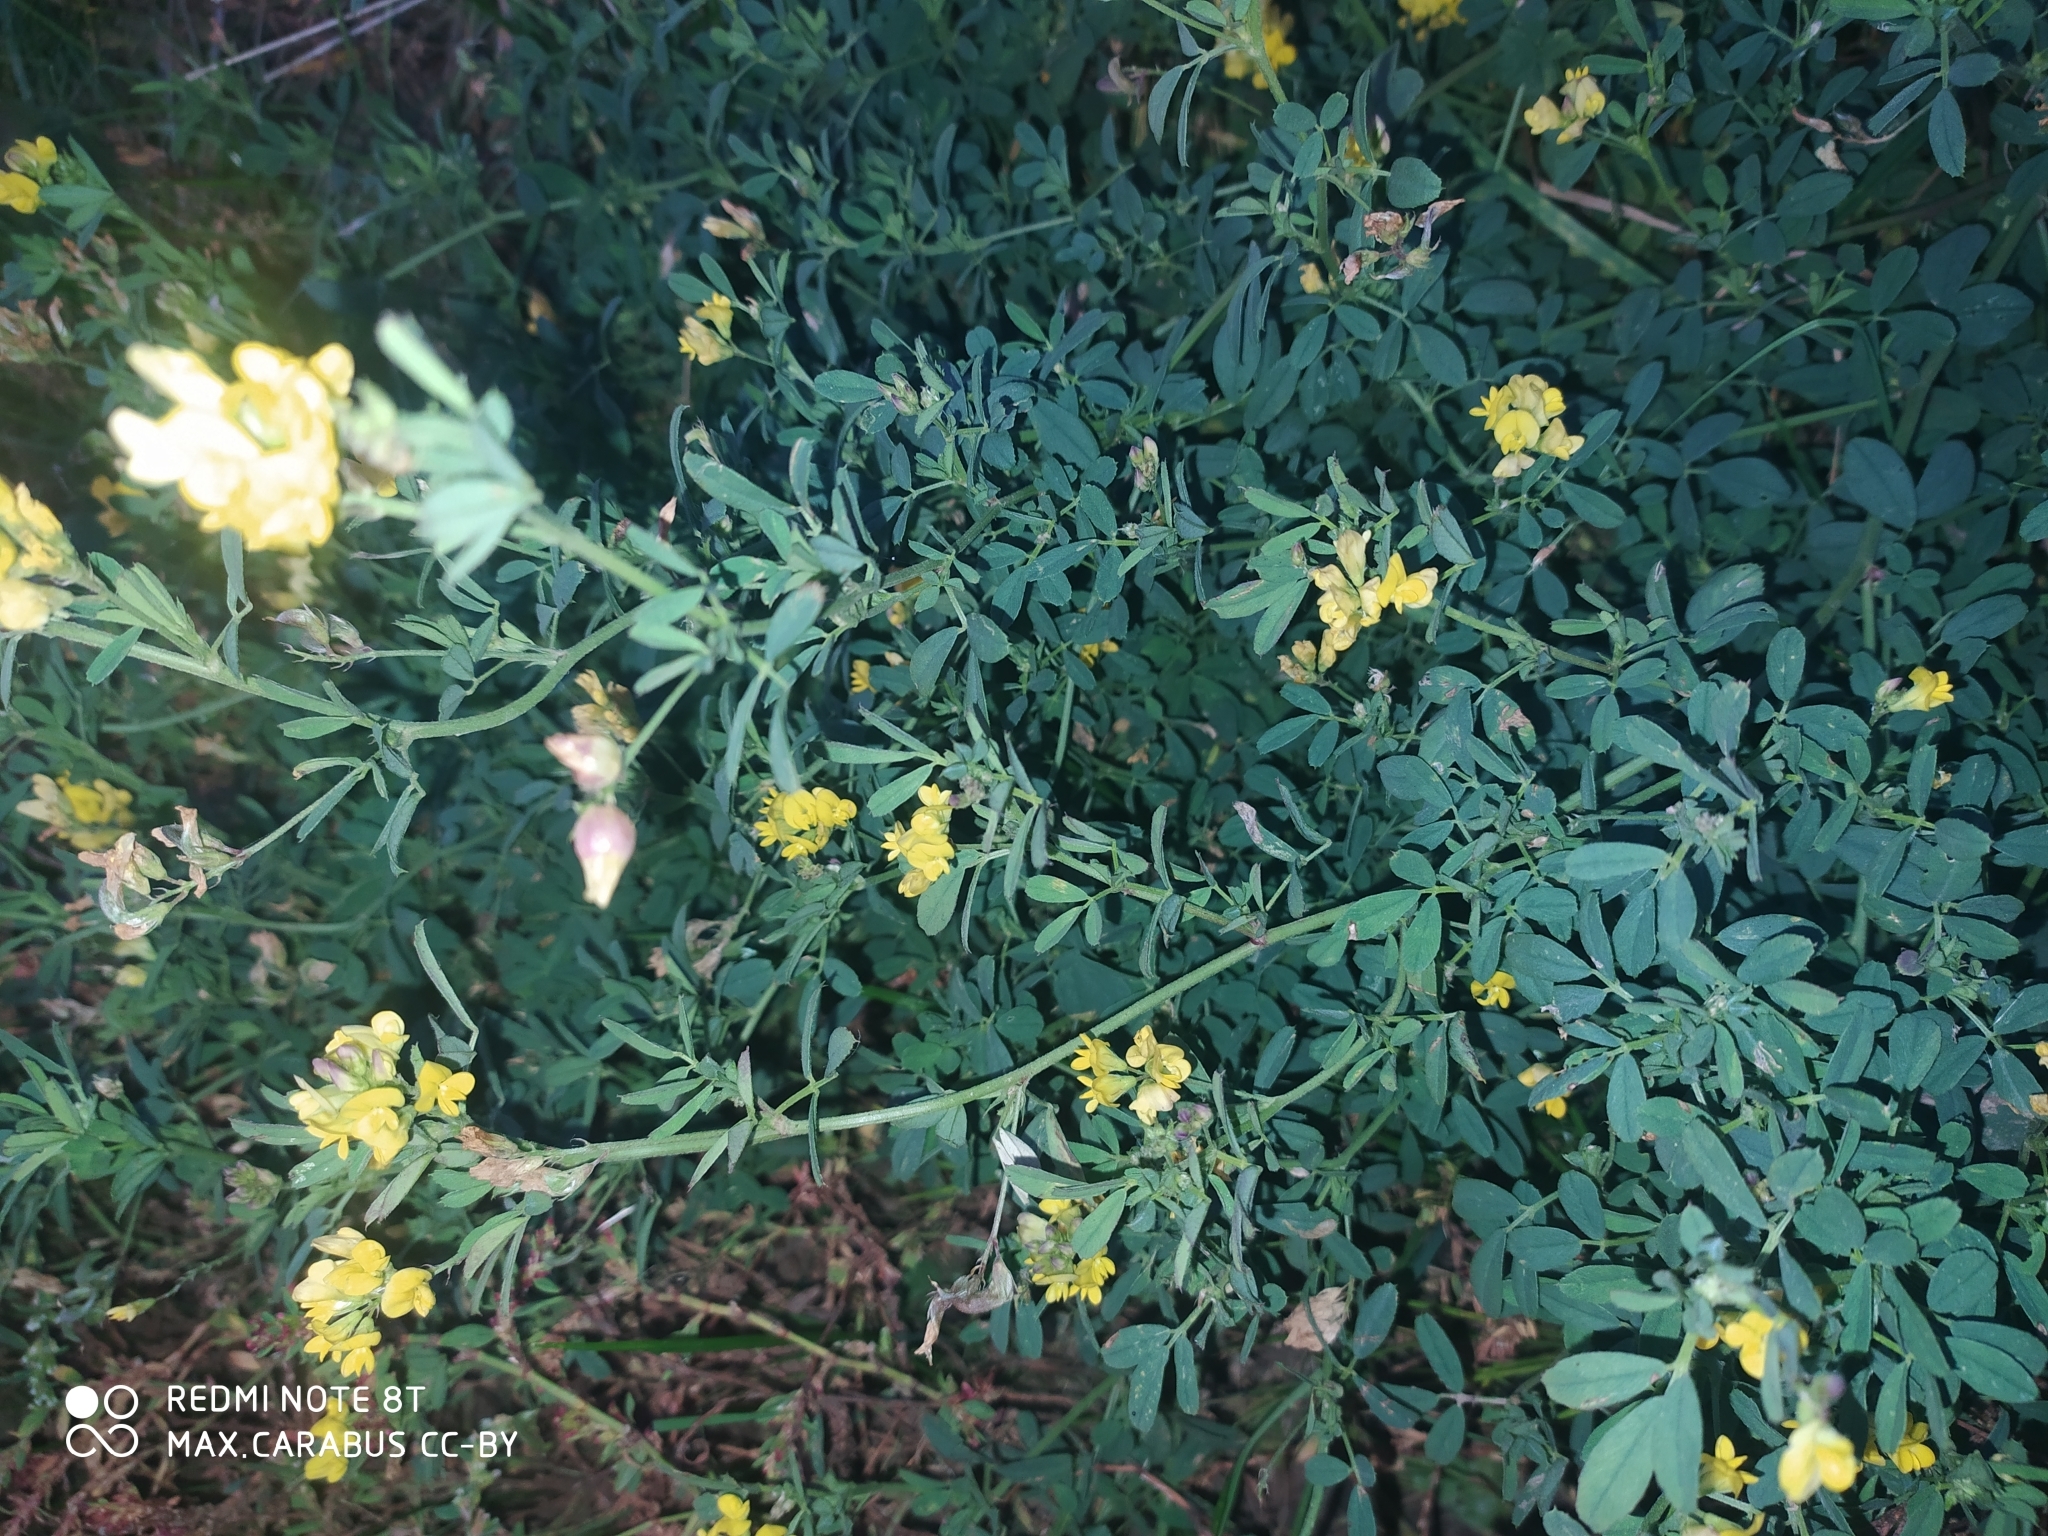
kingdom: Plantae
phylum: Tracheophyta
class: Magnoliopsida
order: Fabales
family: Fabaceae
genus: Medicago
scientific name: Medicago falcata
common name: Sickle medick
